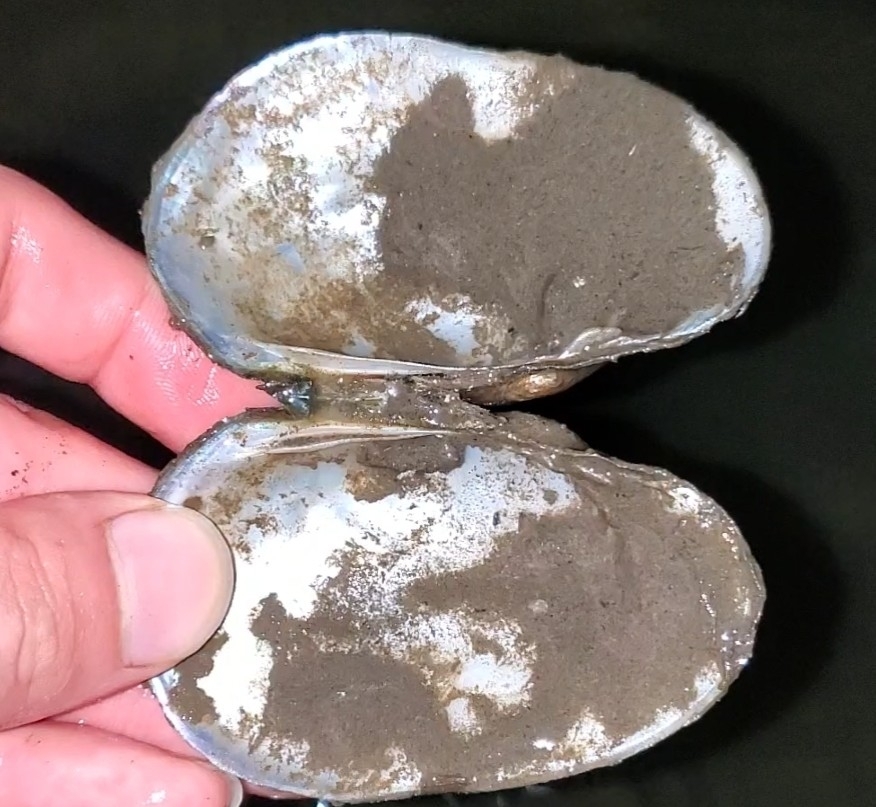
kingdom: Animalia
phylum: Mollusca
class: Bivalvia
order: Unionida
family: Unionidae
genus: Lampsilis
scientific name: Lampsilis siliquoidea
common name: Fatmucket
